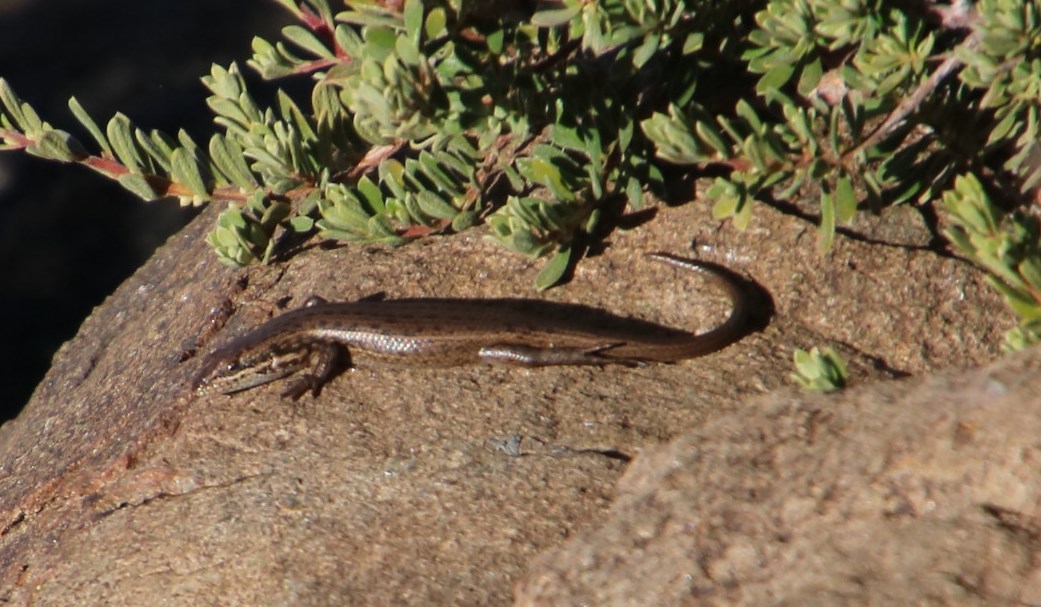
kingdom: Animalia
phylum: Chordata
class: Squamata
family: Scincidae
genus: Trachylepis
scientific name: Trachylepis variegata
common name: Variegated skink
